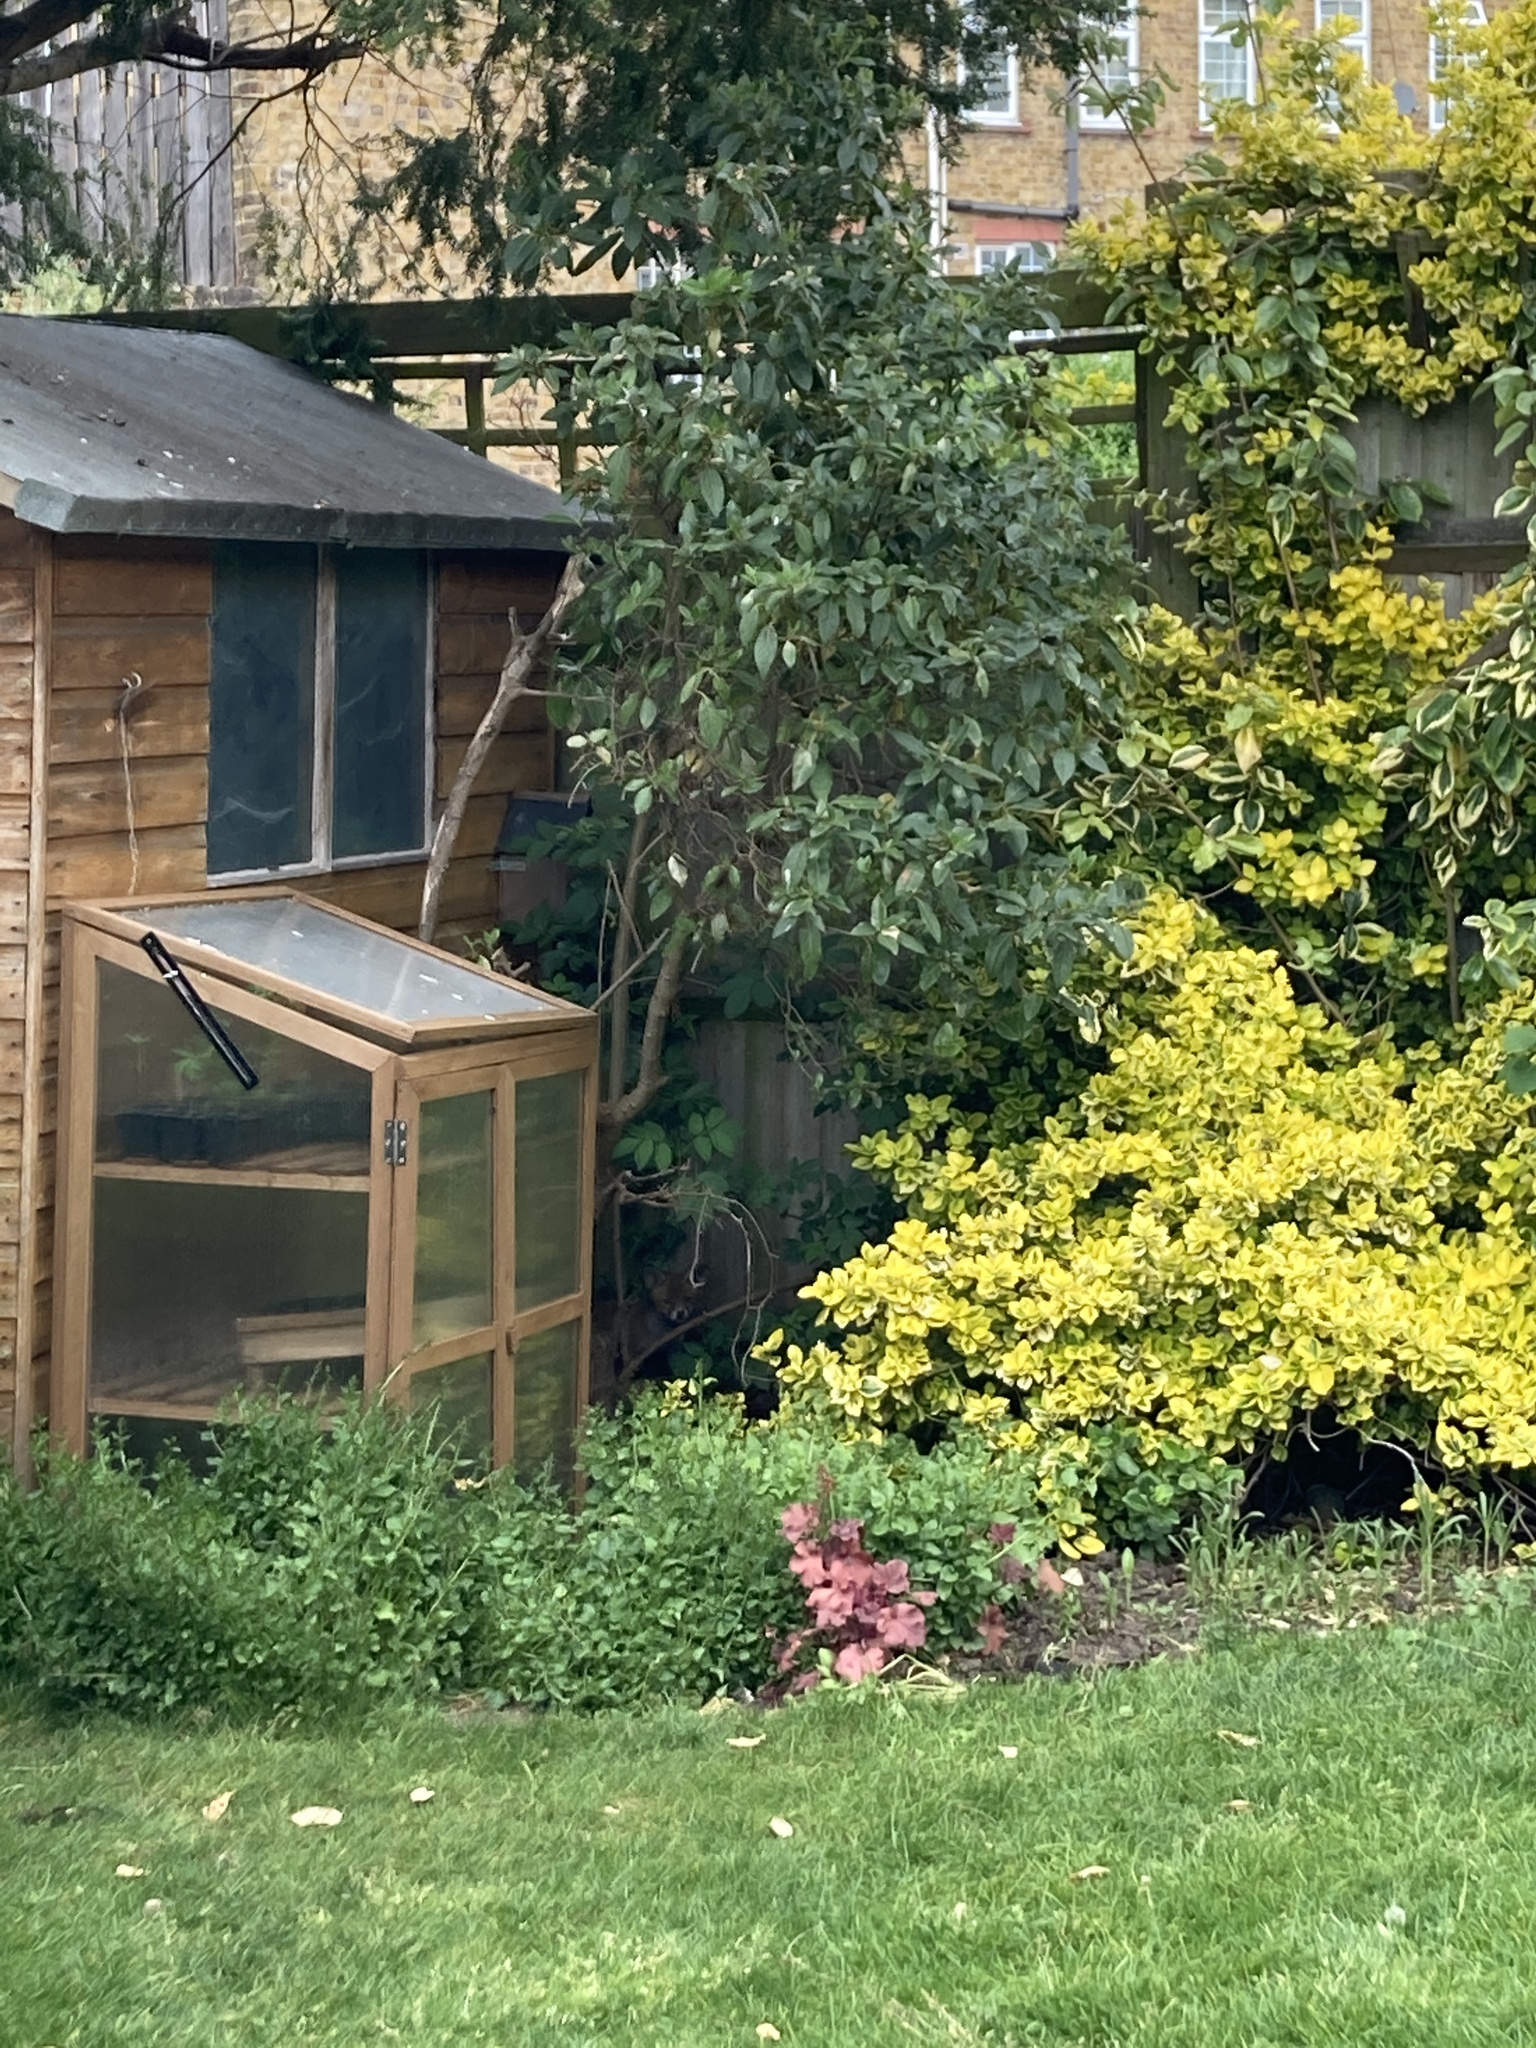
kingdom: Animalia
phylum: Chordata
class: Mammalia
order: Carnivora
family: Canidae
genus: Vulpes
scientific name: Vulpes vulpes
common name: Red fox
